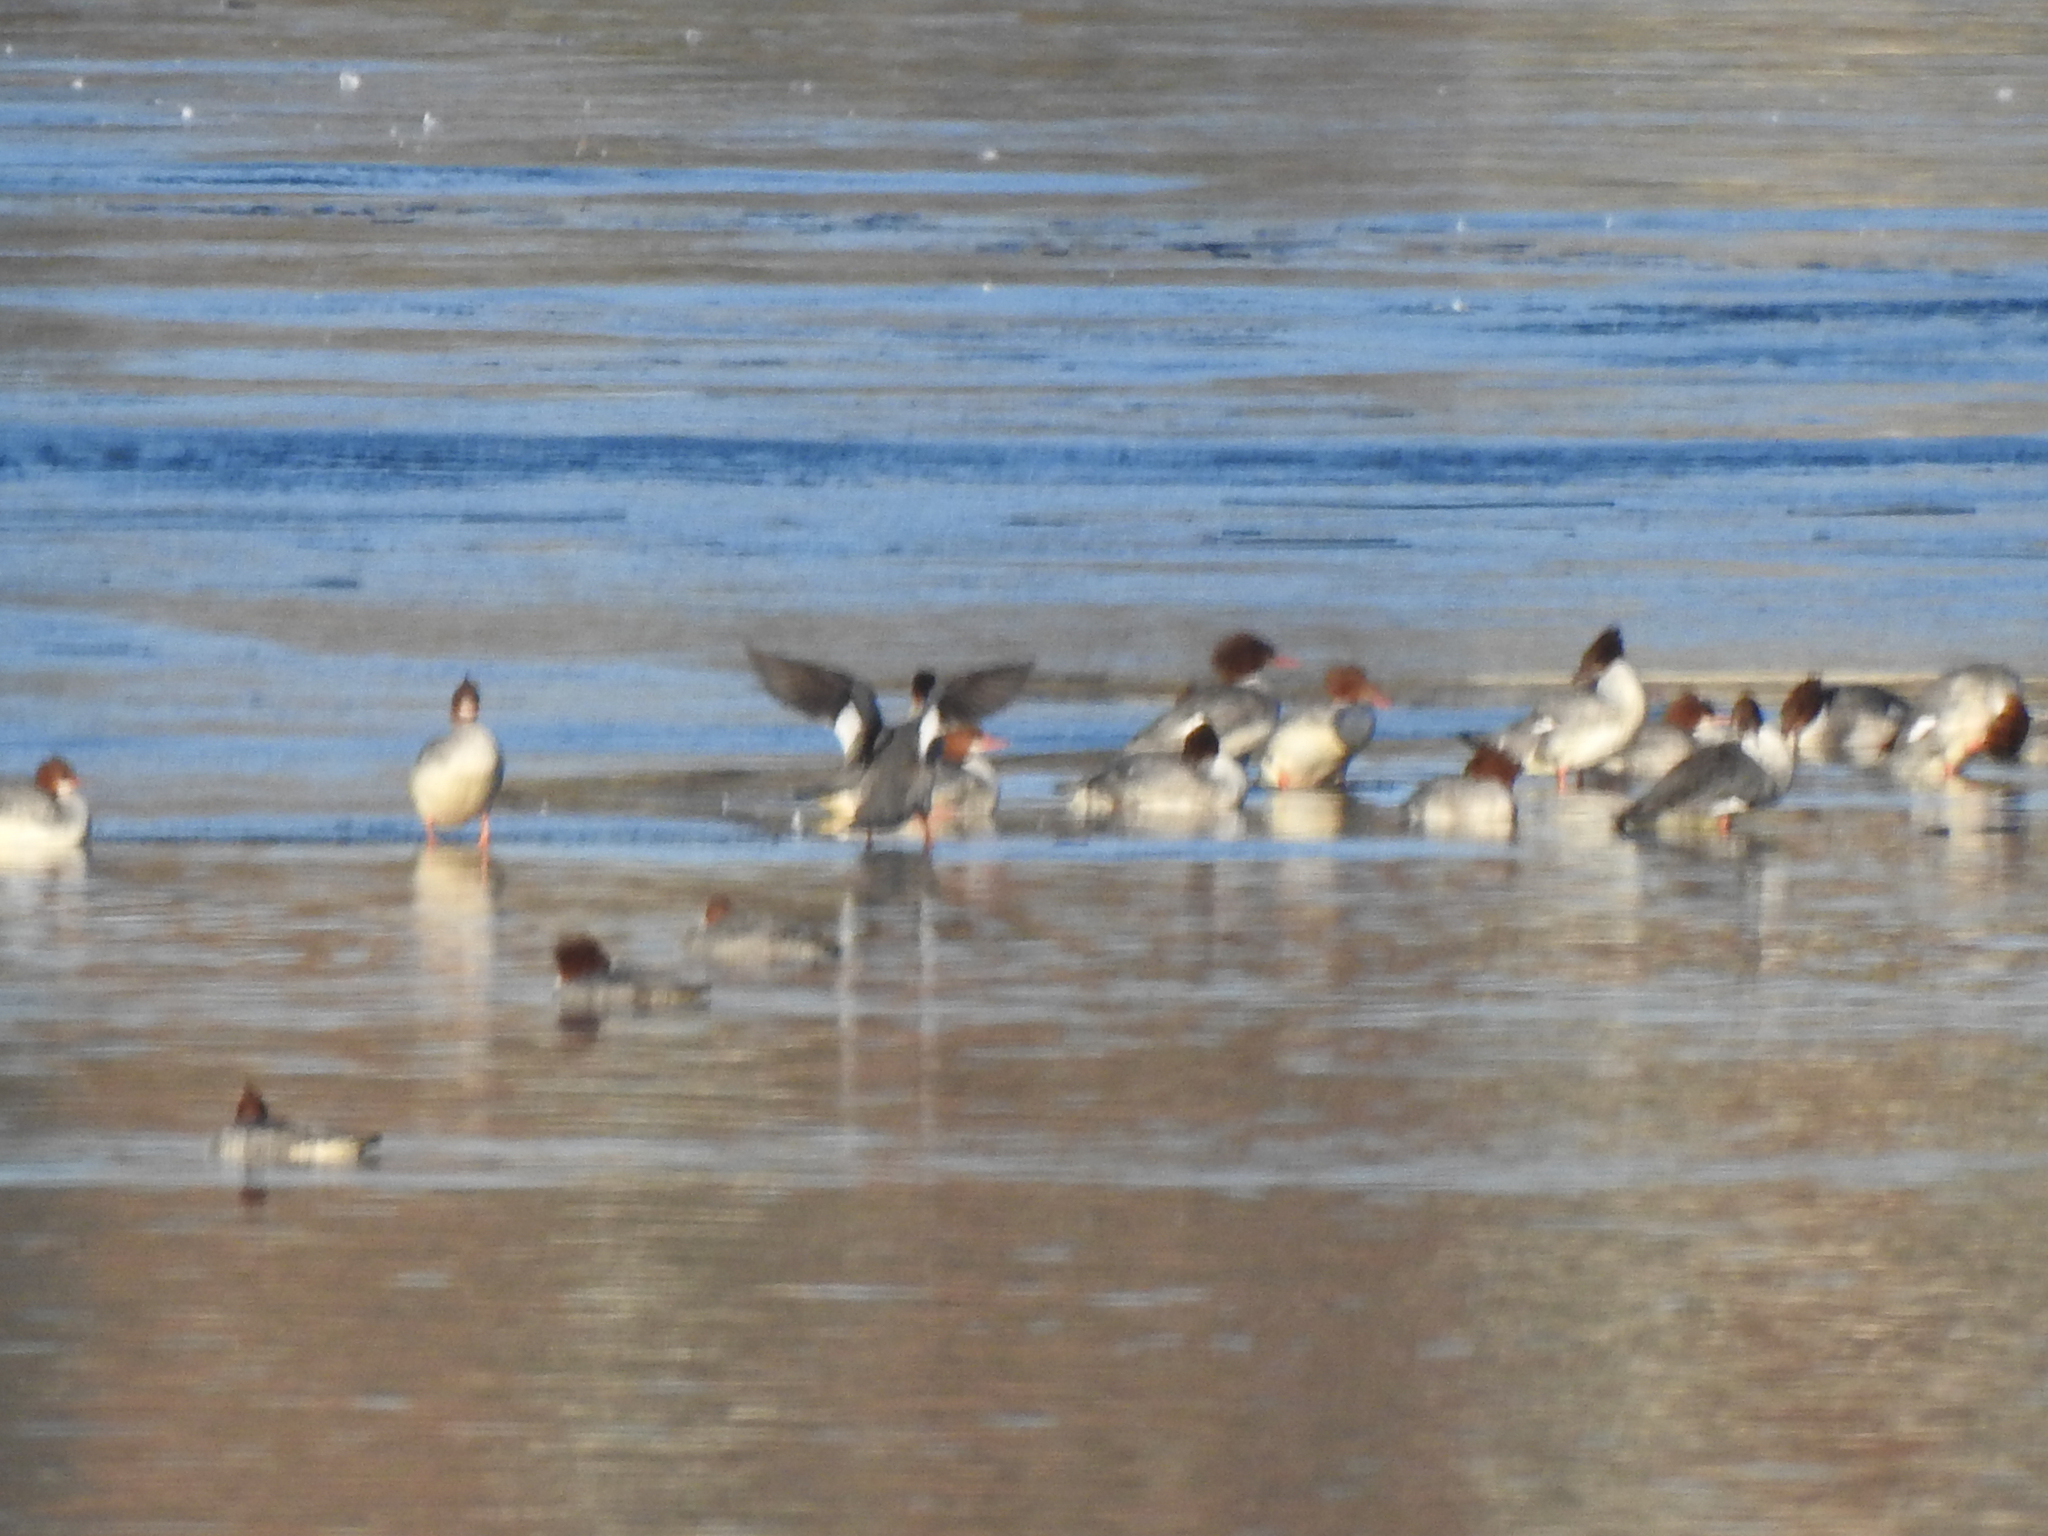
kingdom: Animalia
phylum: Chordata
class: Aves
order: Anseriformes
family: Anatidae
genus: Mergus
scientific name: Mergus merganser
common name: Common merganser
